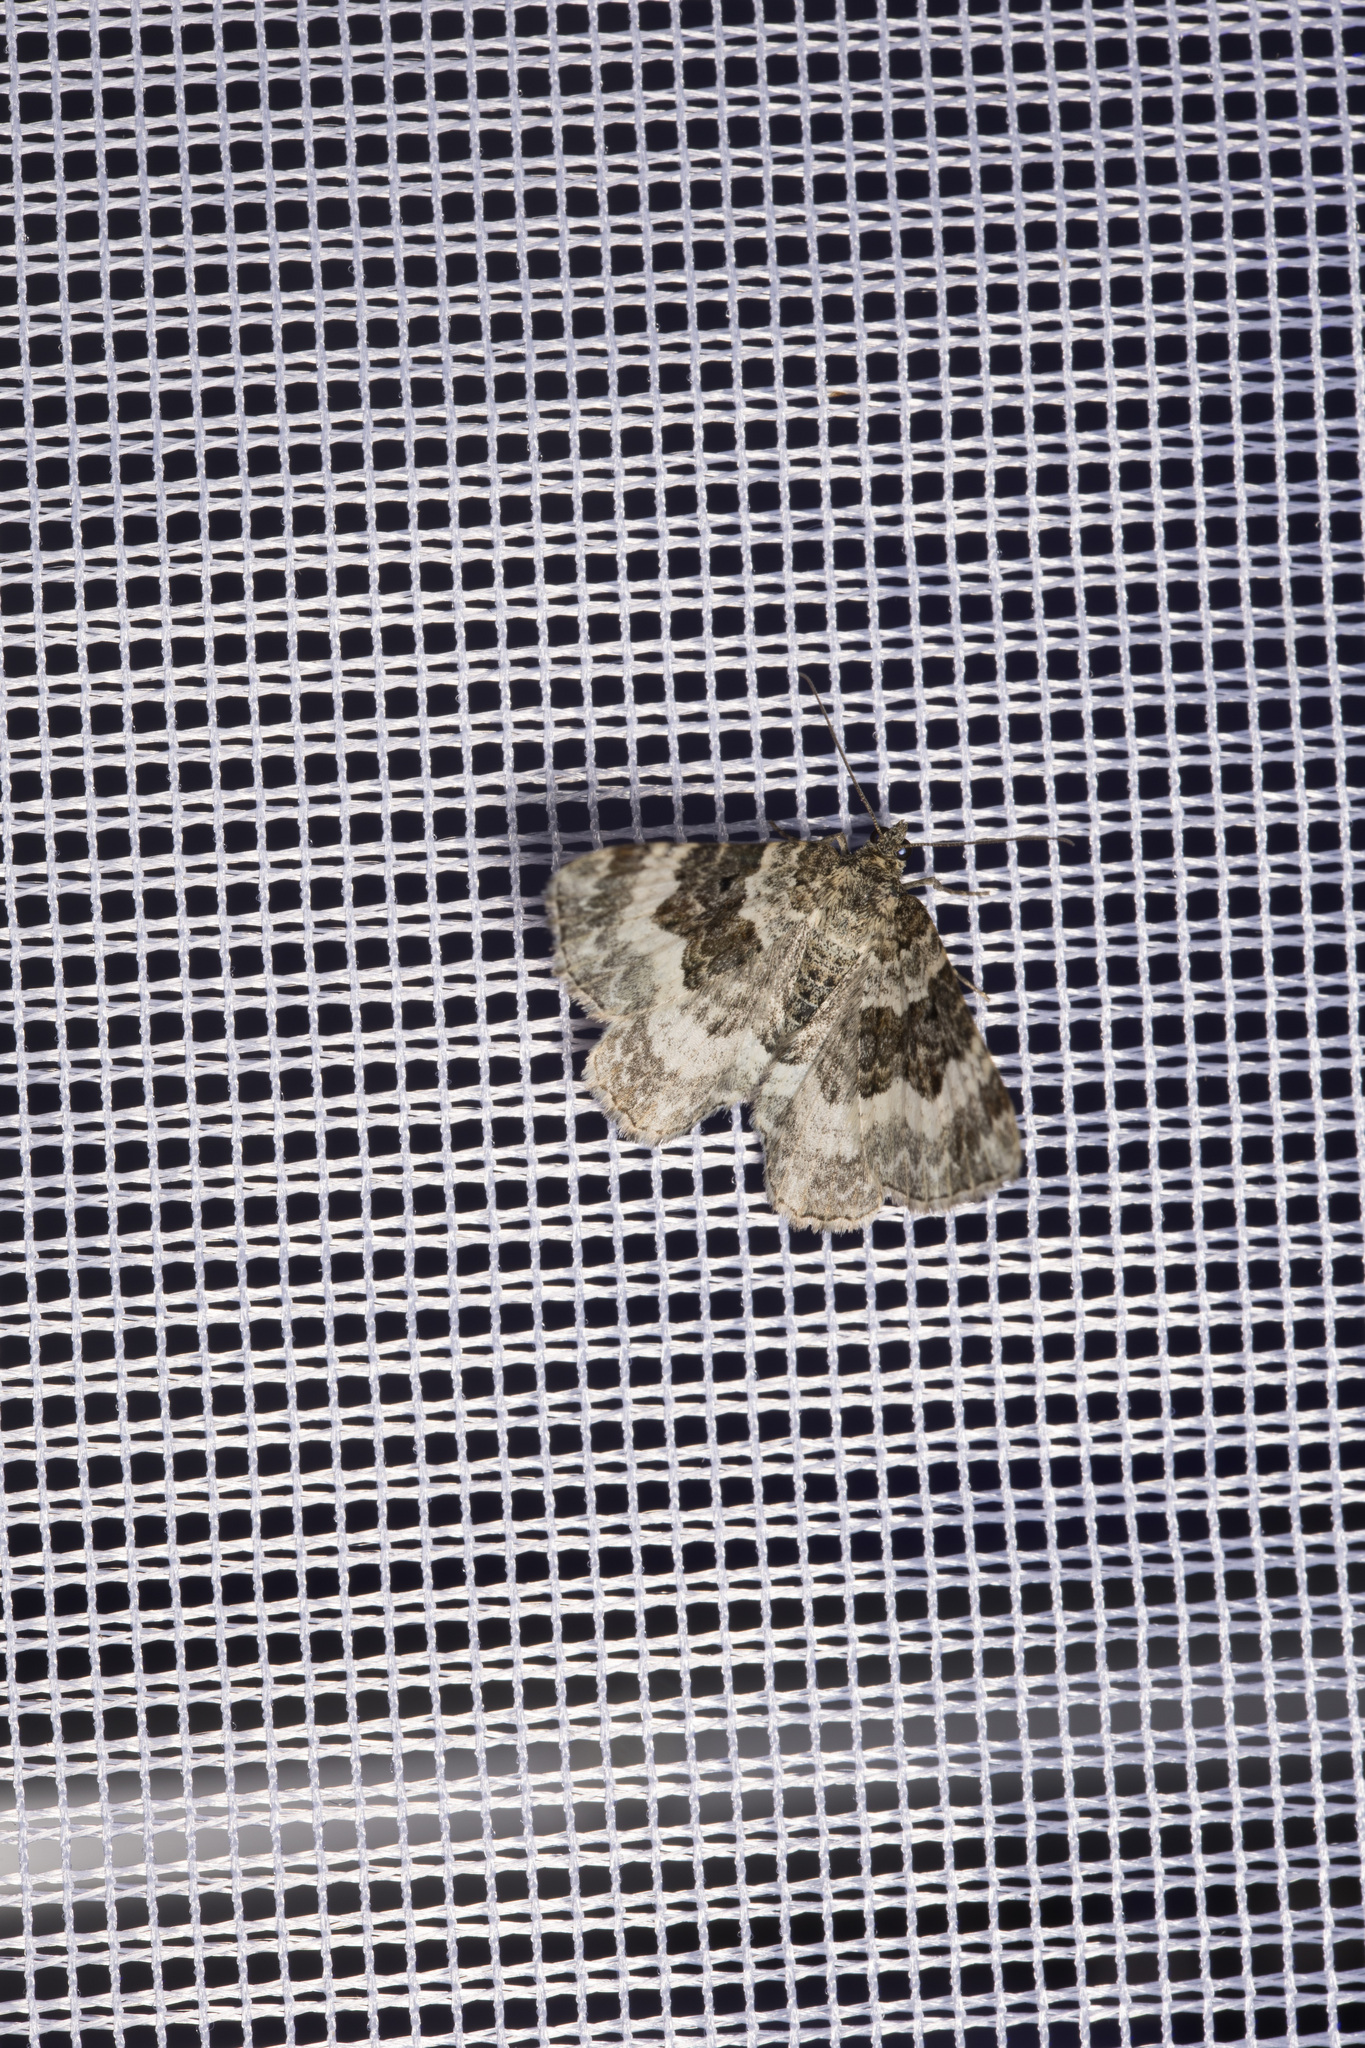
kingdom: Animalia
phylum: Arthropoda
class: Insecta
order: Lepidoptera
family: Geometridae
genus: Epirrhoe
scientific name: Epirrhoe alternata
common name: Common carpet
